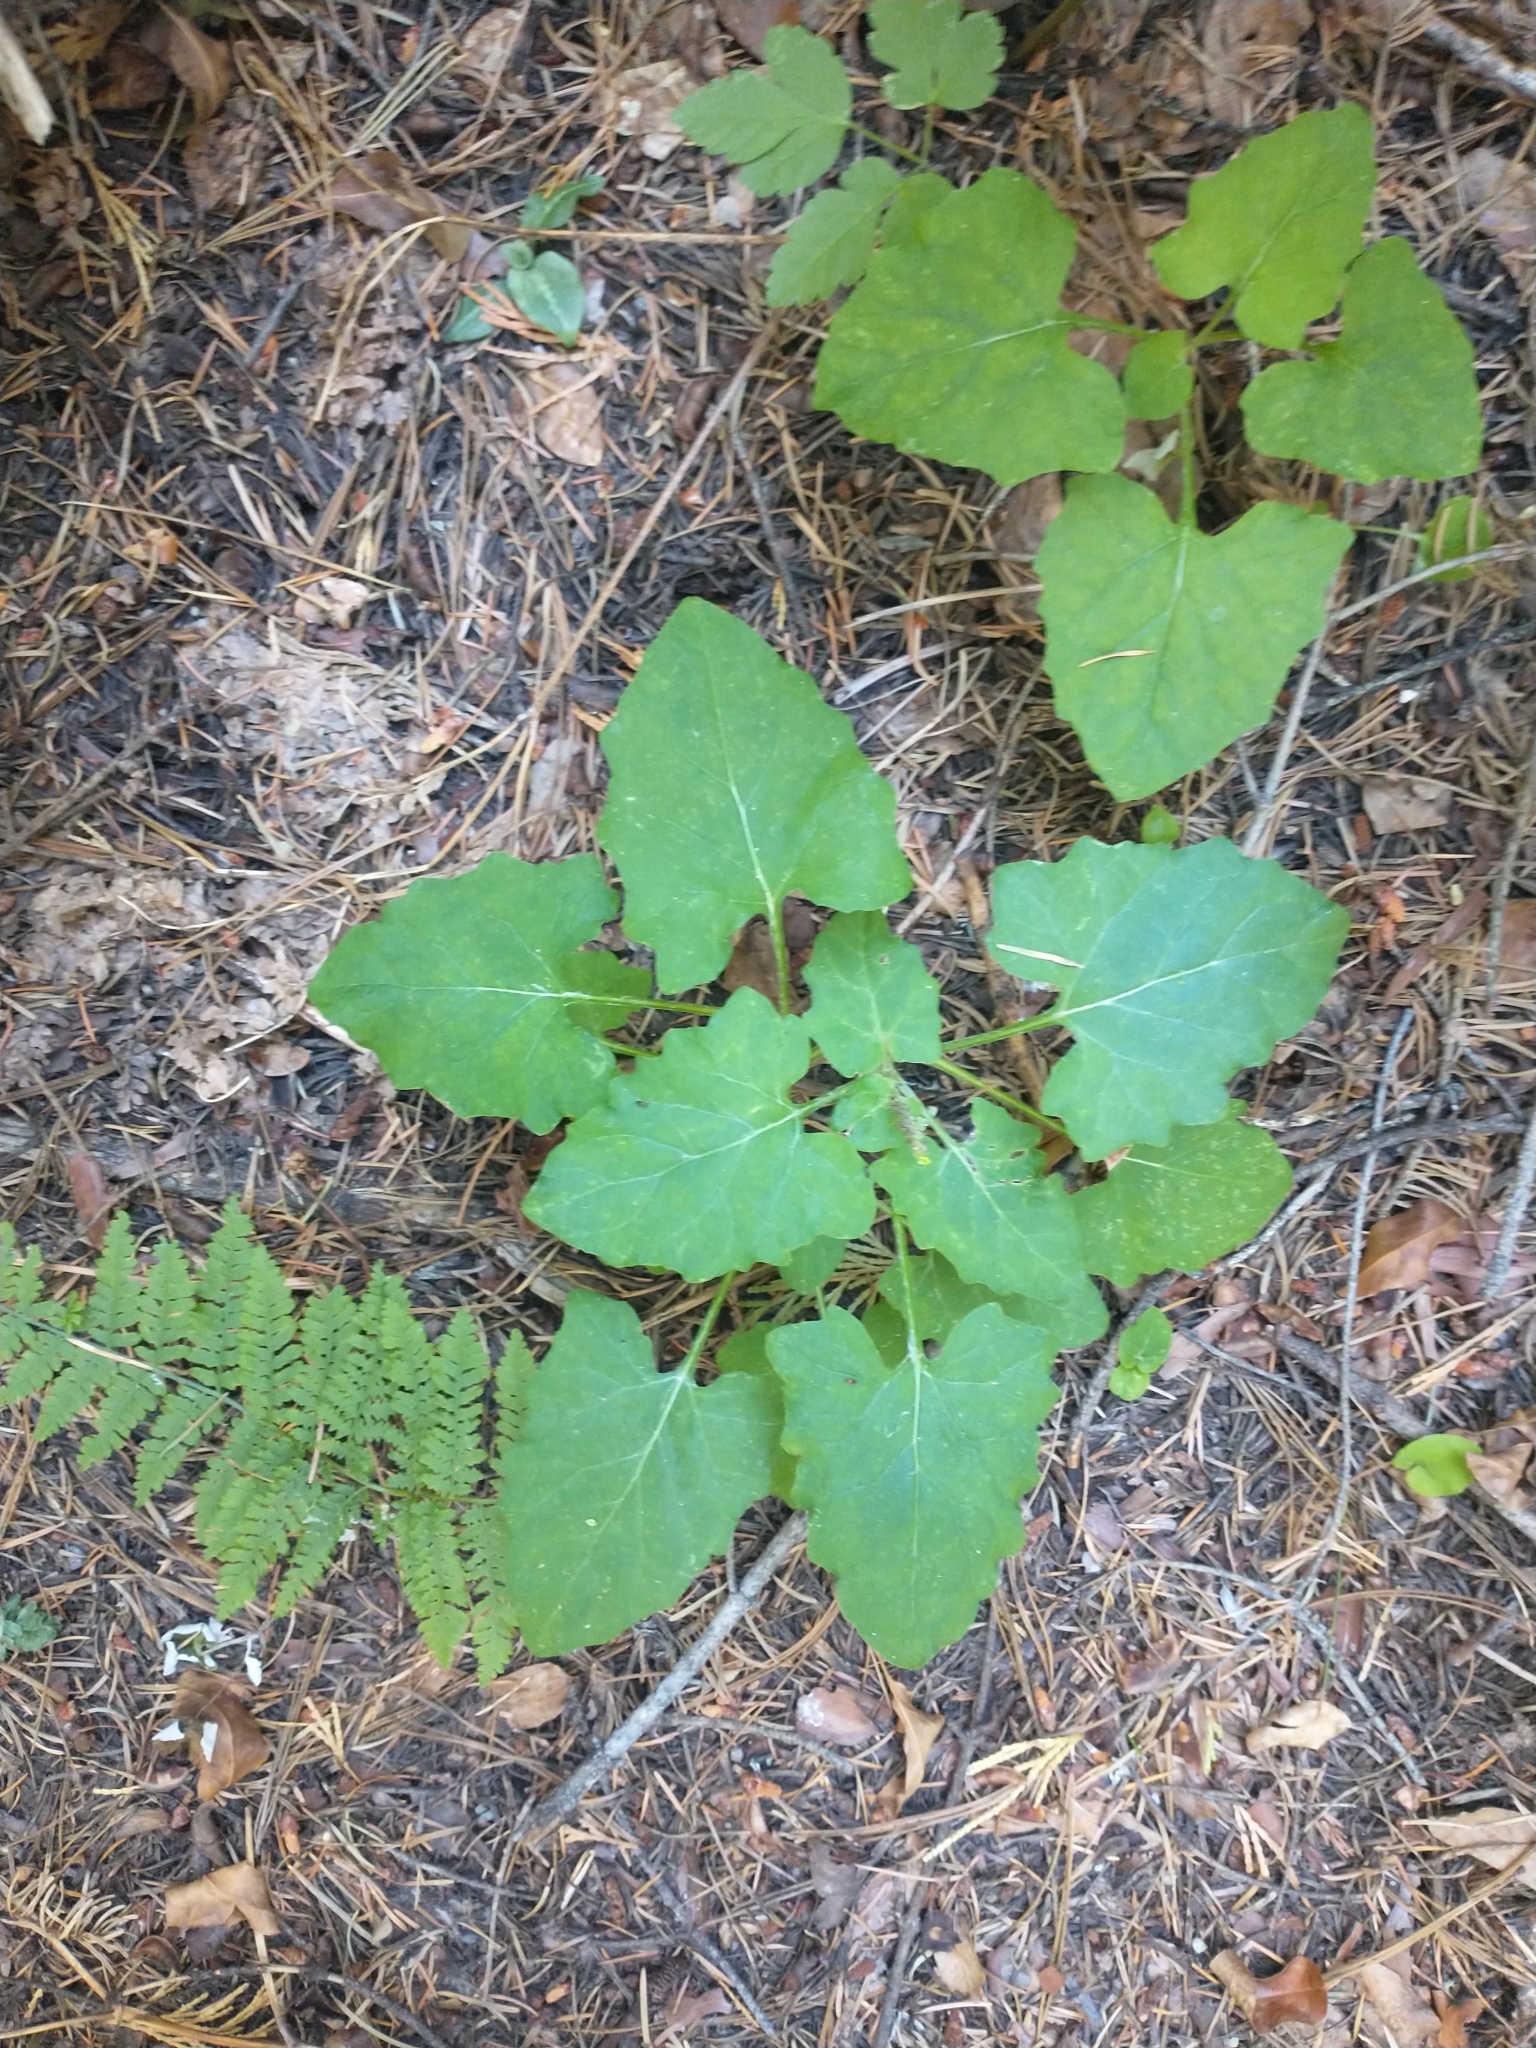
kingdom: Plantae
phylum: Tracheophyta
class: Magnoliopsida
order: Asterales
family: Asteraceae
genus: Adenocaulon
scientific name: Adenocaulon bicolor
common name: Trailplant
